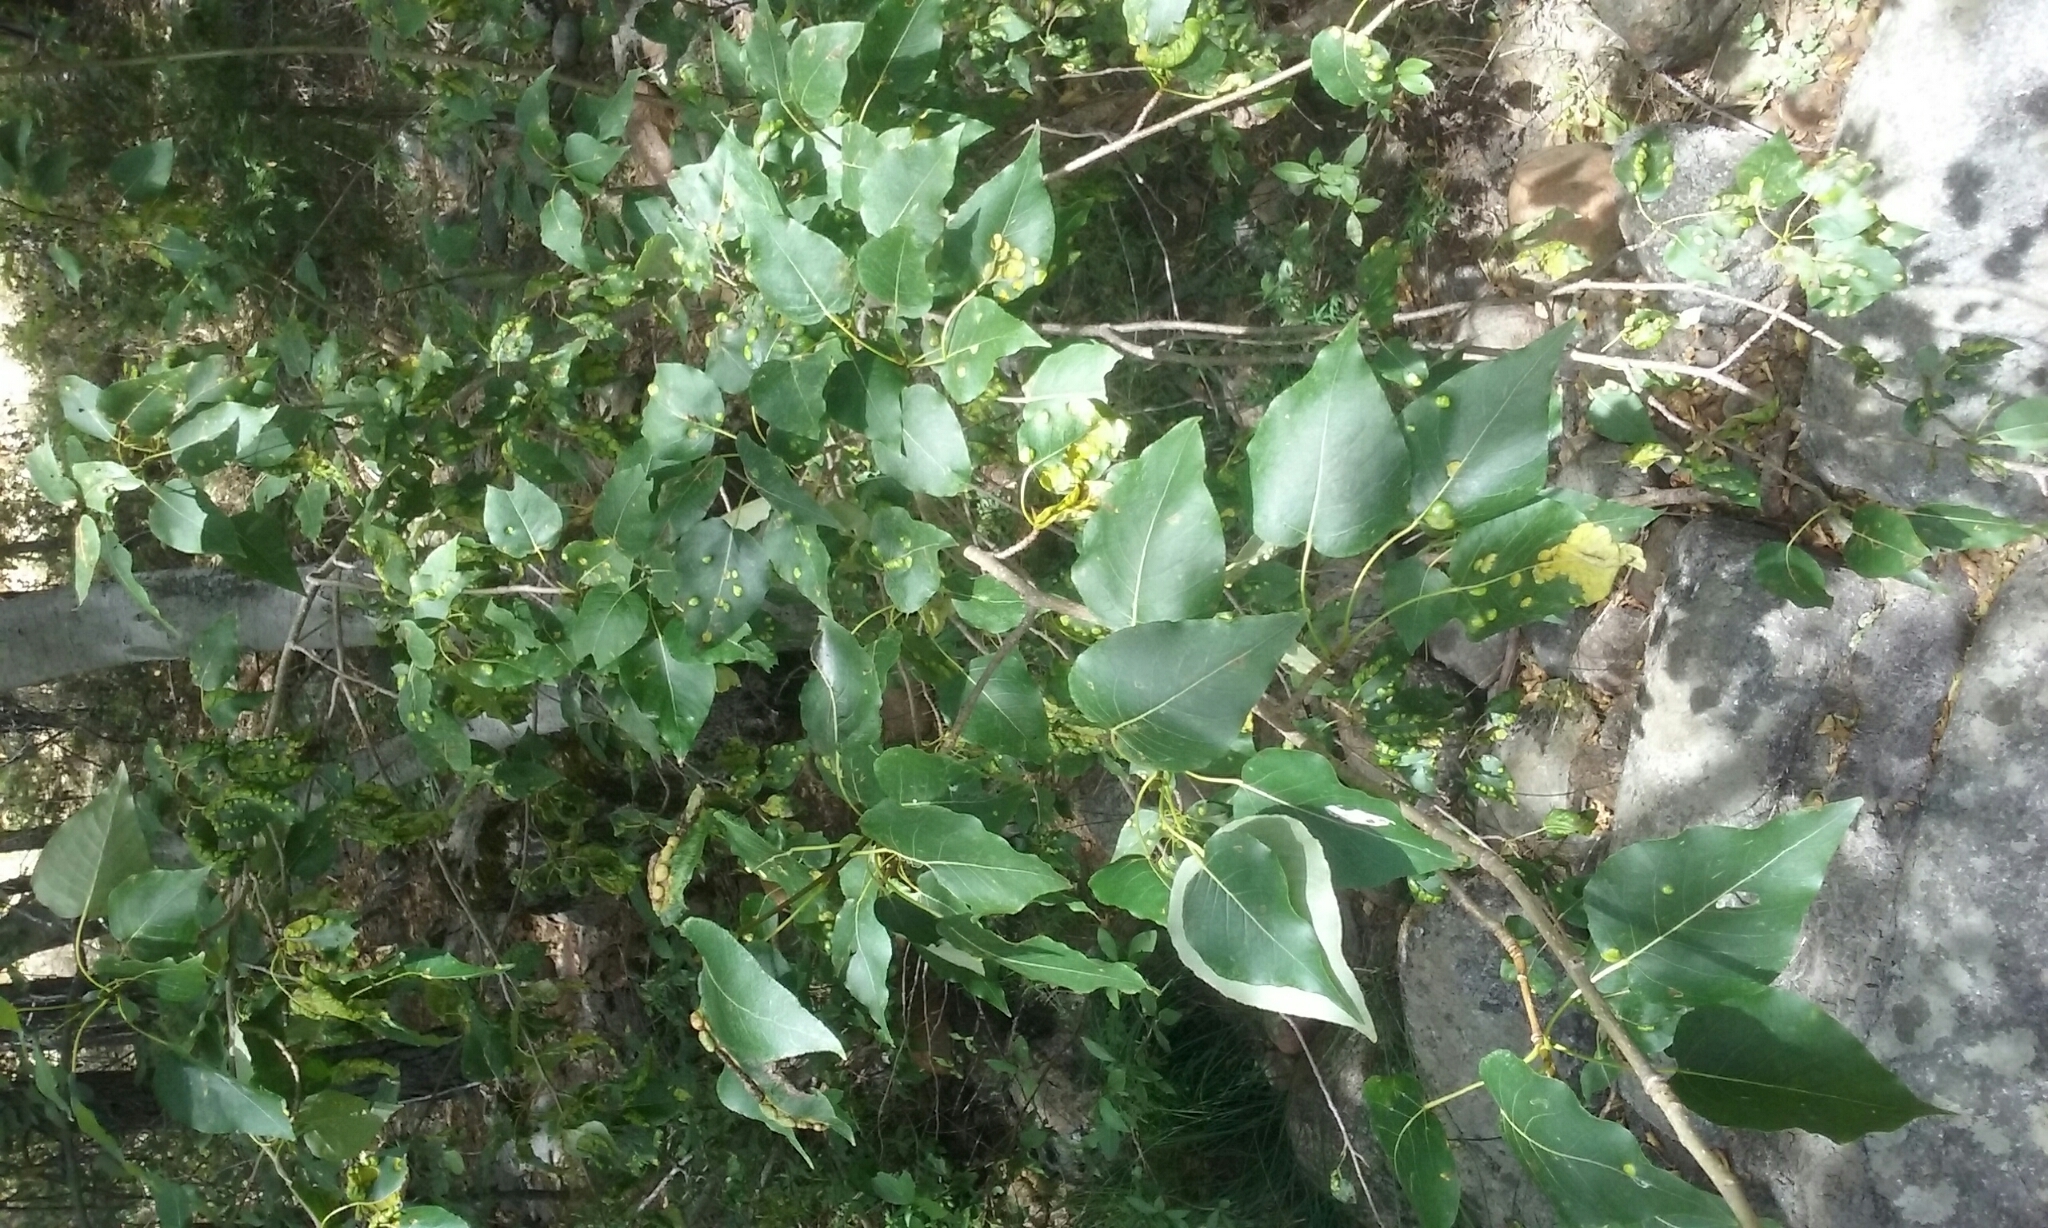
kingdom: Plantae
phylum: Tracheophyta
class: Magnoliopsida
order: Malpighiales
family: Salicaceae
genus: Populus
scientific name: Populus trichocarpa
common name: Black cottonwood
